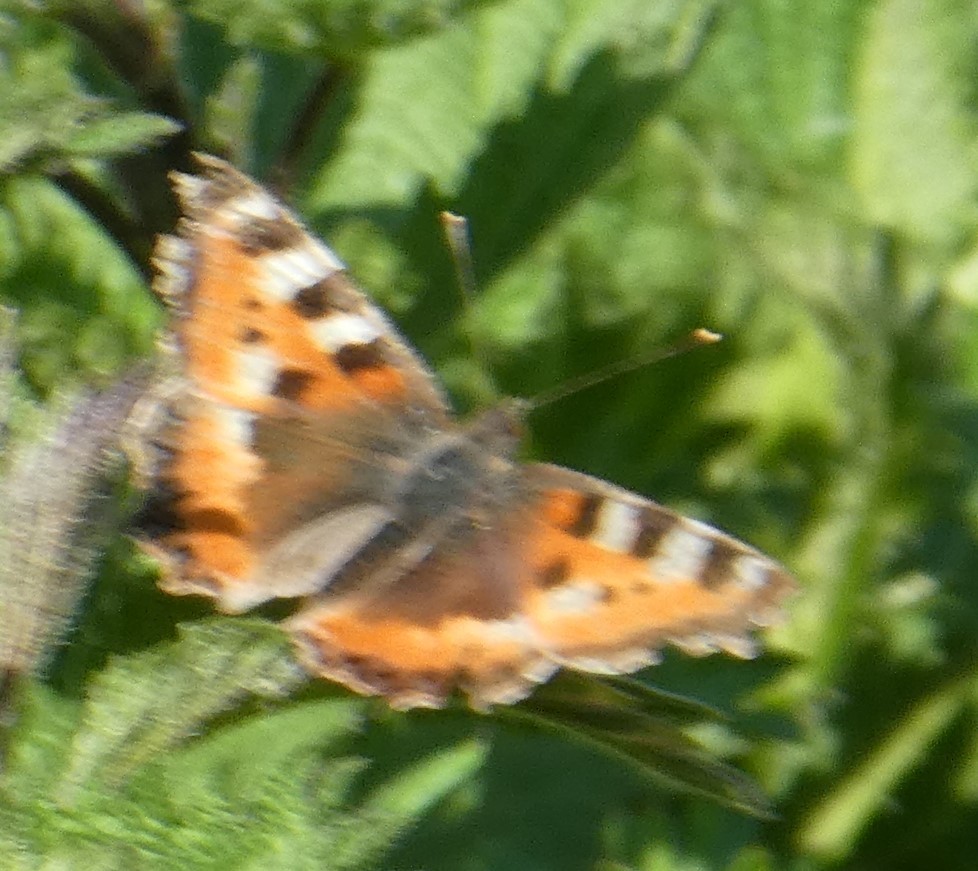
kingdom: Animalia
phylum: Arthropoda
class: Insecta
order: Lepidoptera
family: Nymphalidae
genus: Aglais
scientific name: Aglais urticae
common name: Small tortoiseshell
